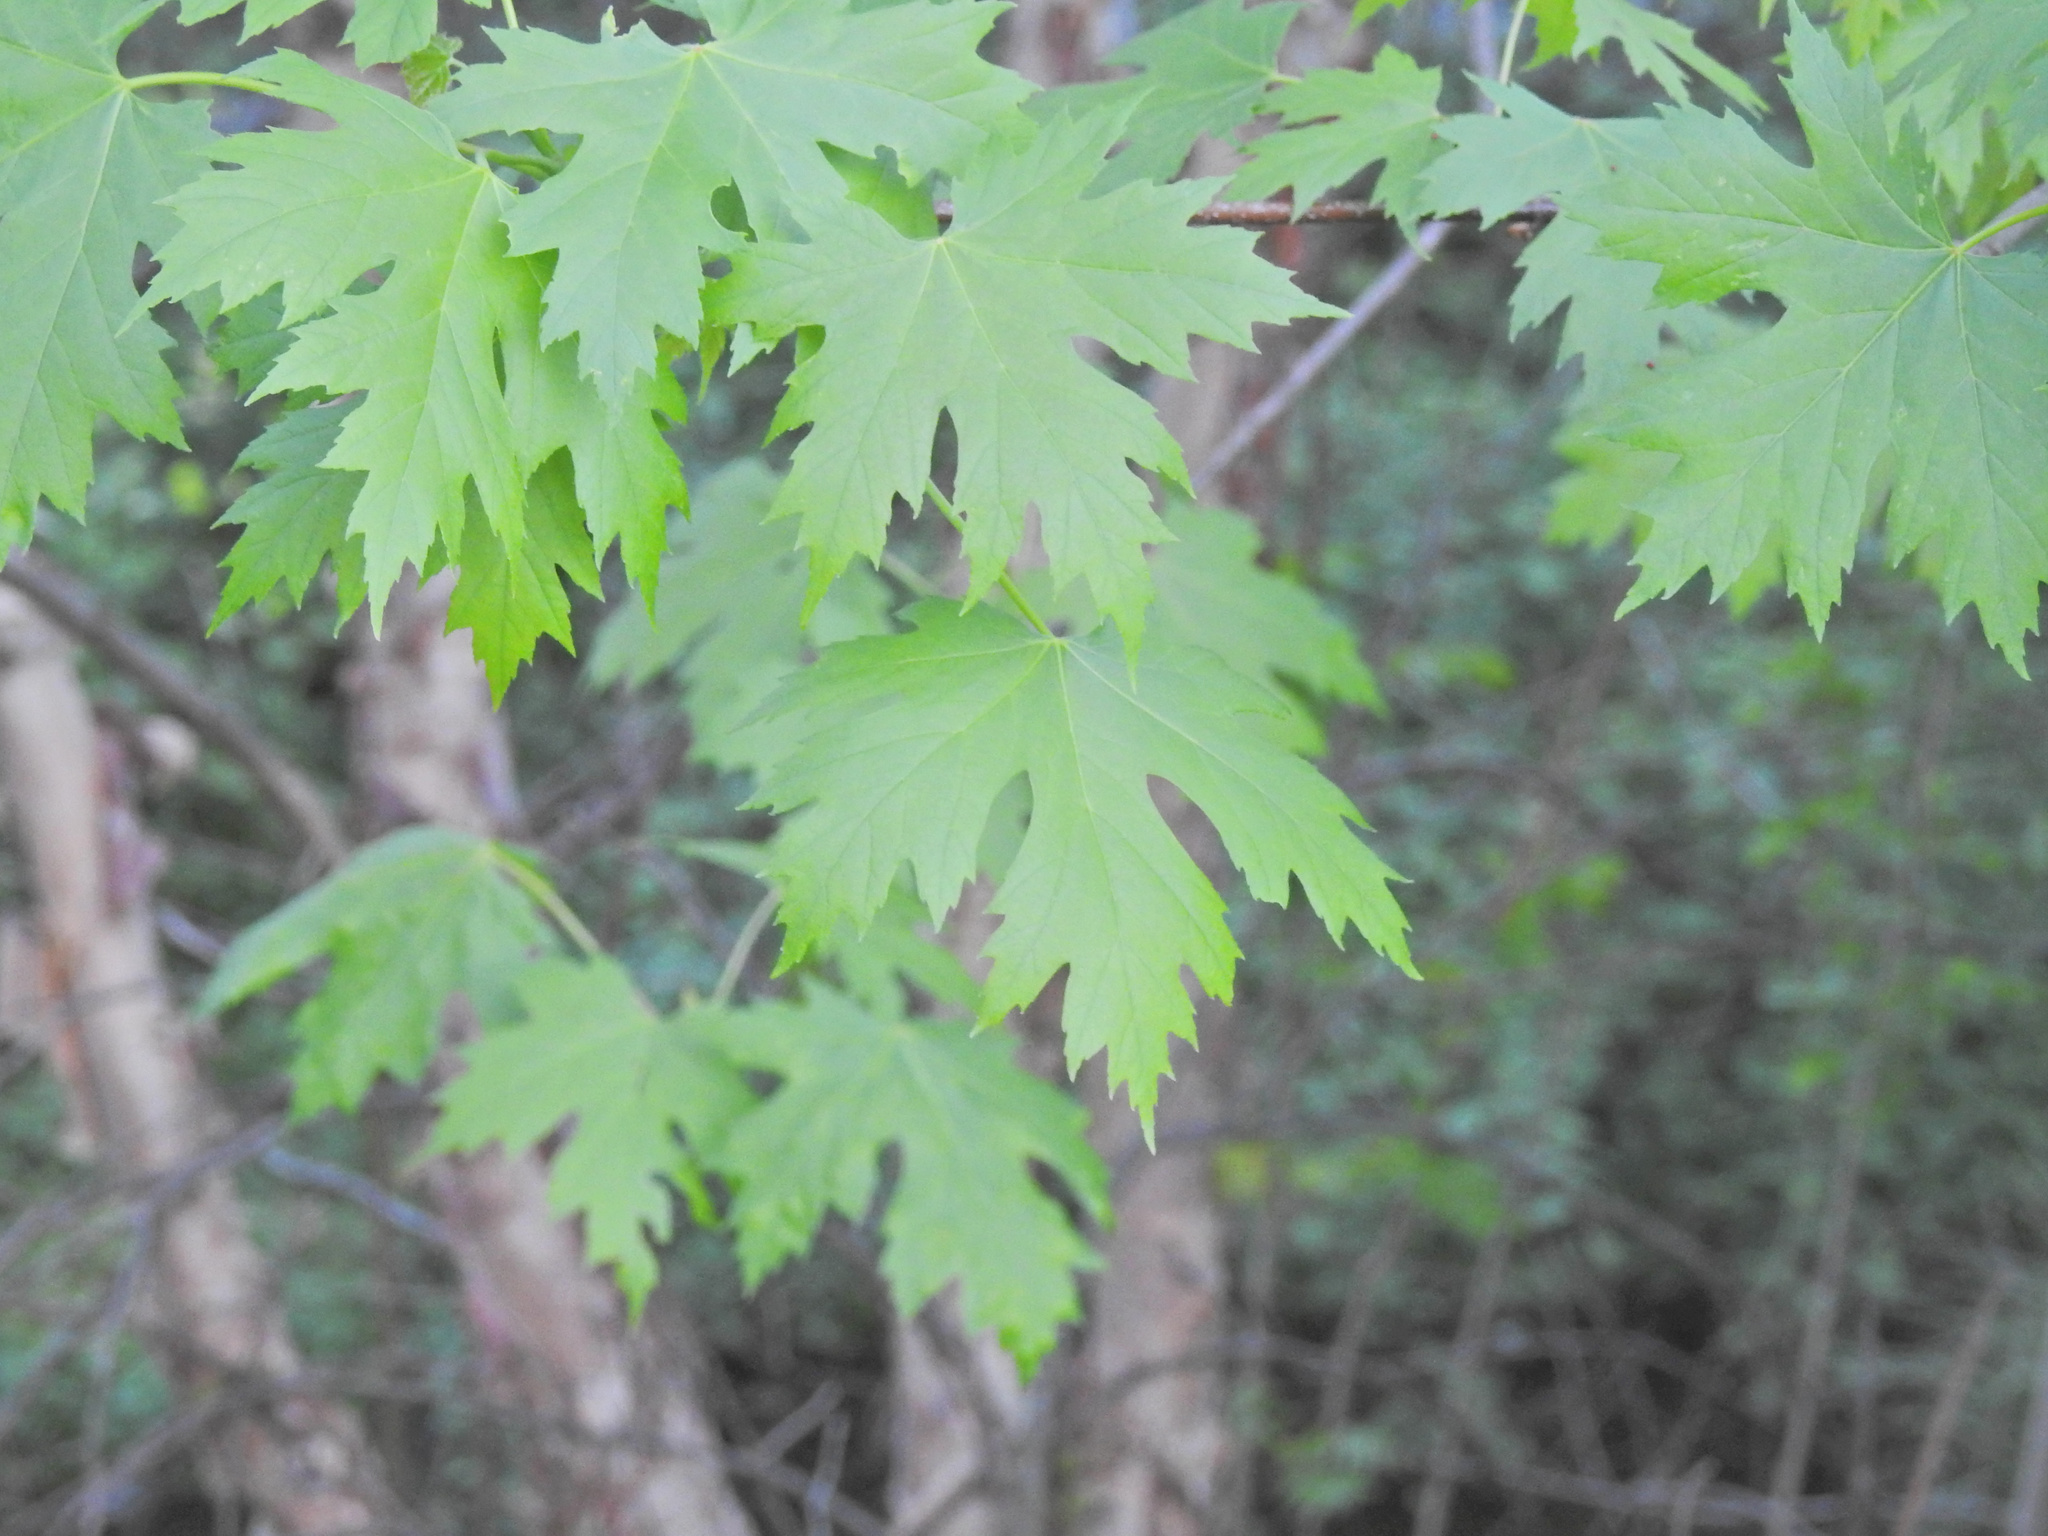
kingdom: Plantae
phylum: Tracheophyta
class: Magnoliopsida
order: Sapindales
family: Sapindaceae
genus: Acer
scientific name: Acer saccharinum
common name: Silver maple
